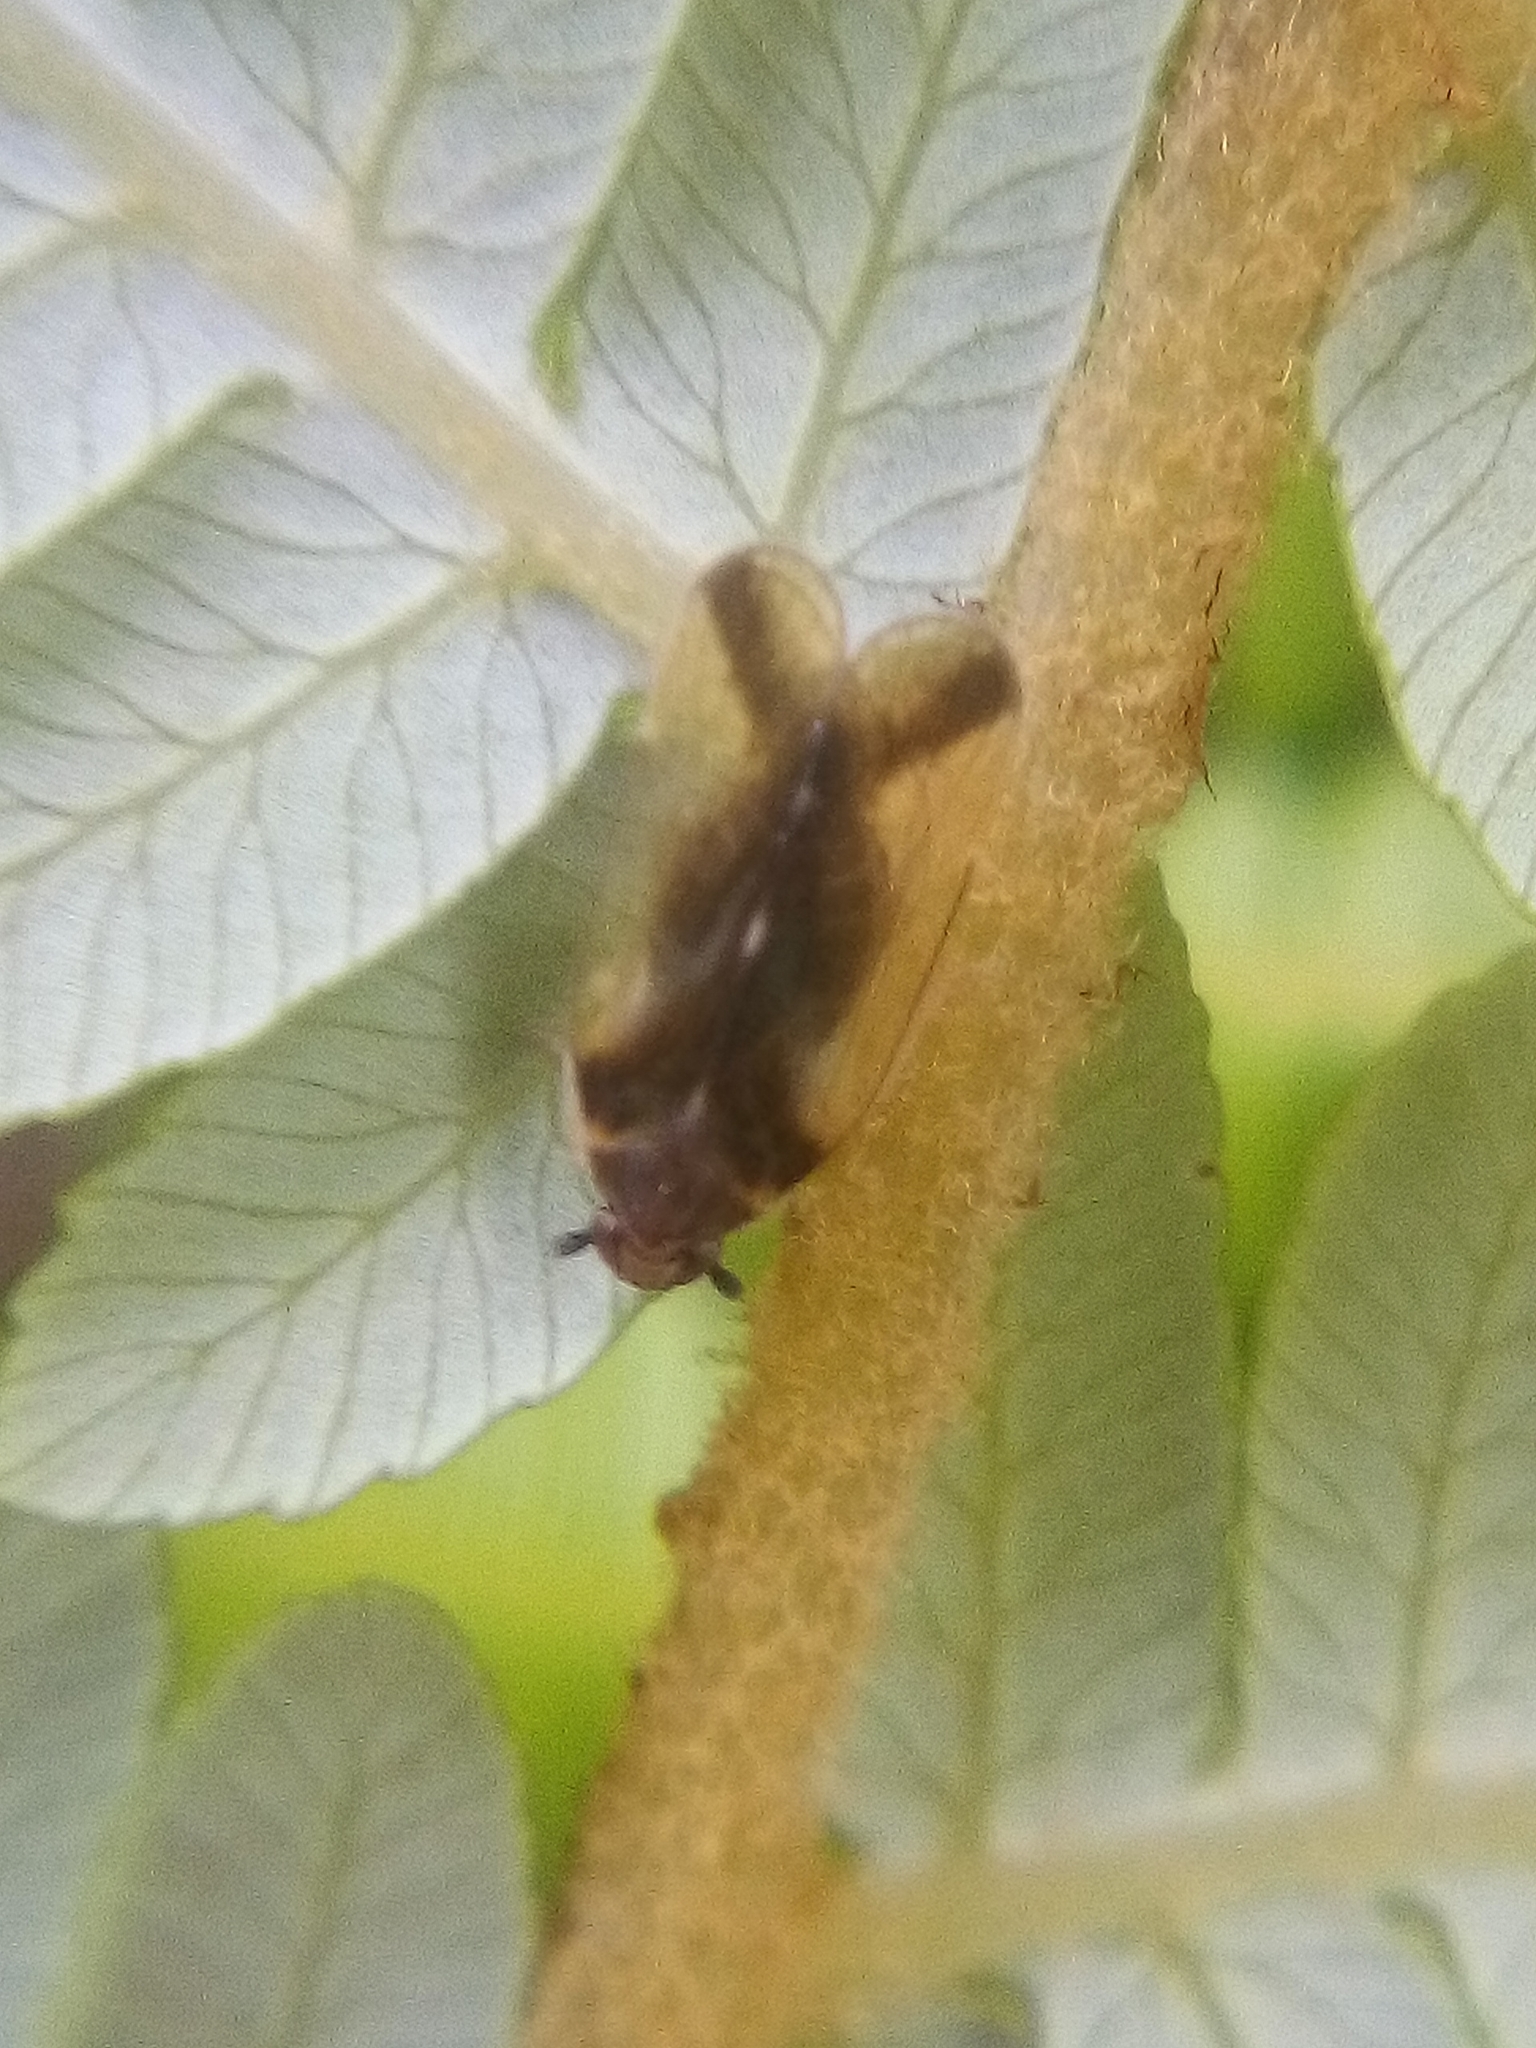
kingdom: Animalia
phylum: Arthropoda
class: Insecta
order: Hemiptera
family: Cixiidae
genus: Tiriteana
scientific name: Tiriteana clarkei
